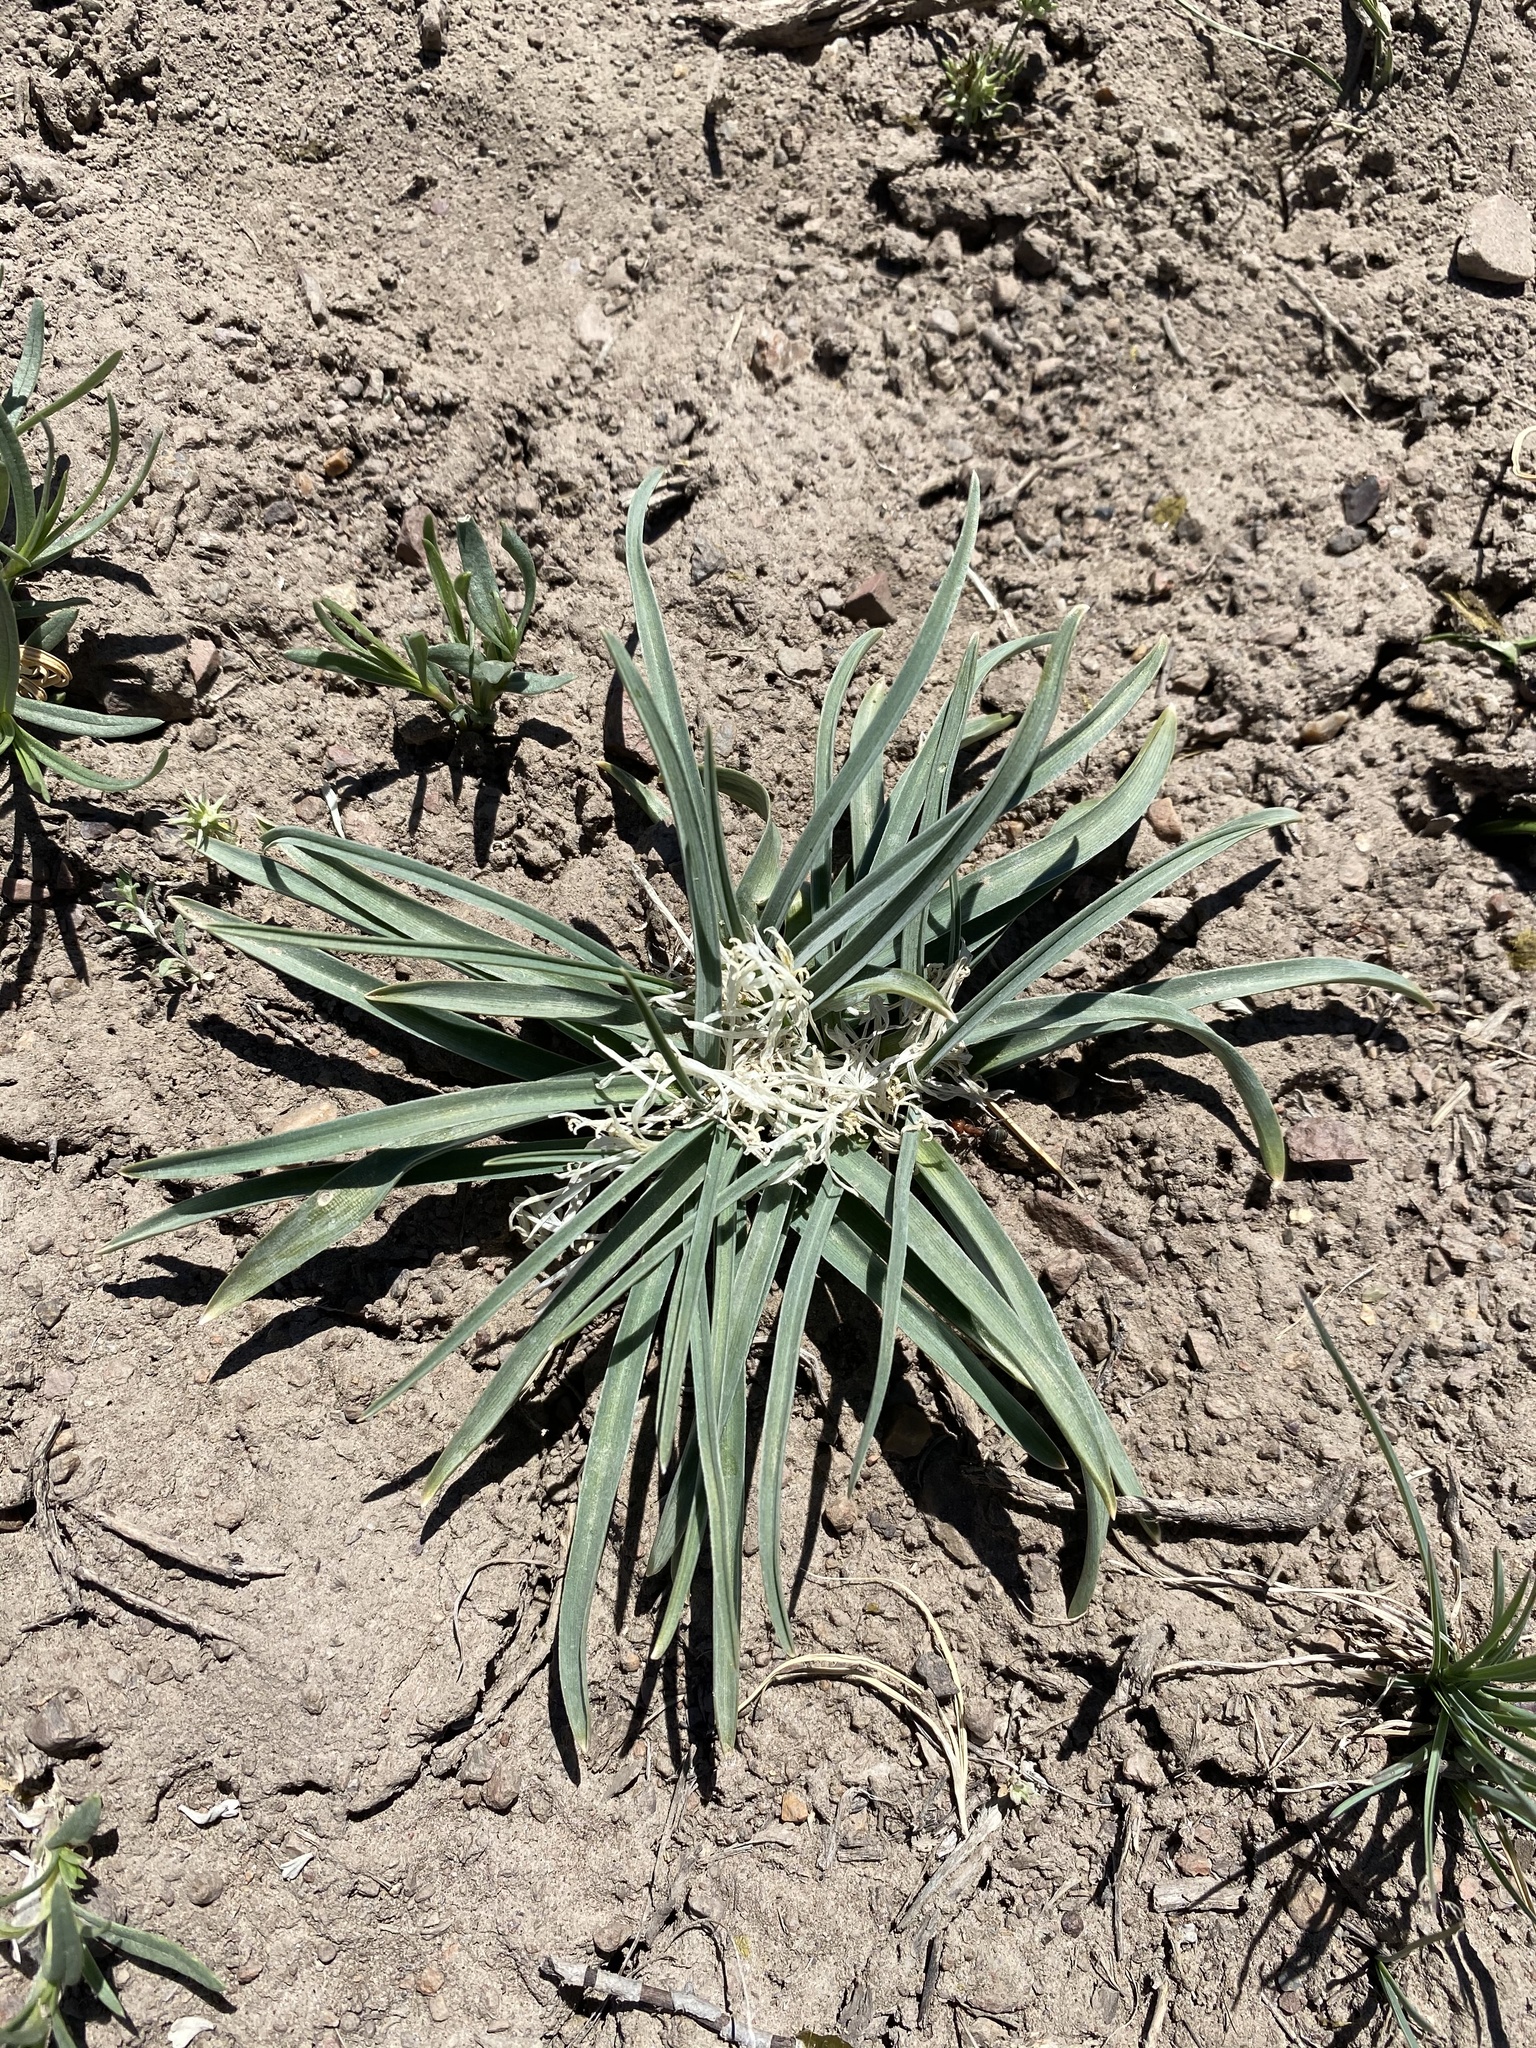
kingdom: Plantae
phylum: Tracheophyta
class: Liliopsida
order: Asparagales
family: Asparagaceae
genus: Leucocrinum
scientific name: Leucocrinum montanum
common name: Mountain-lily
